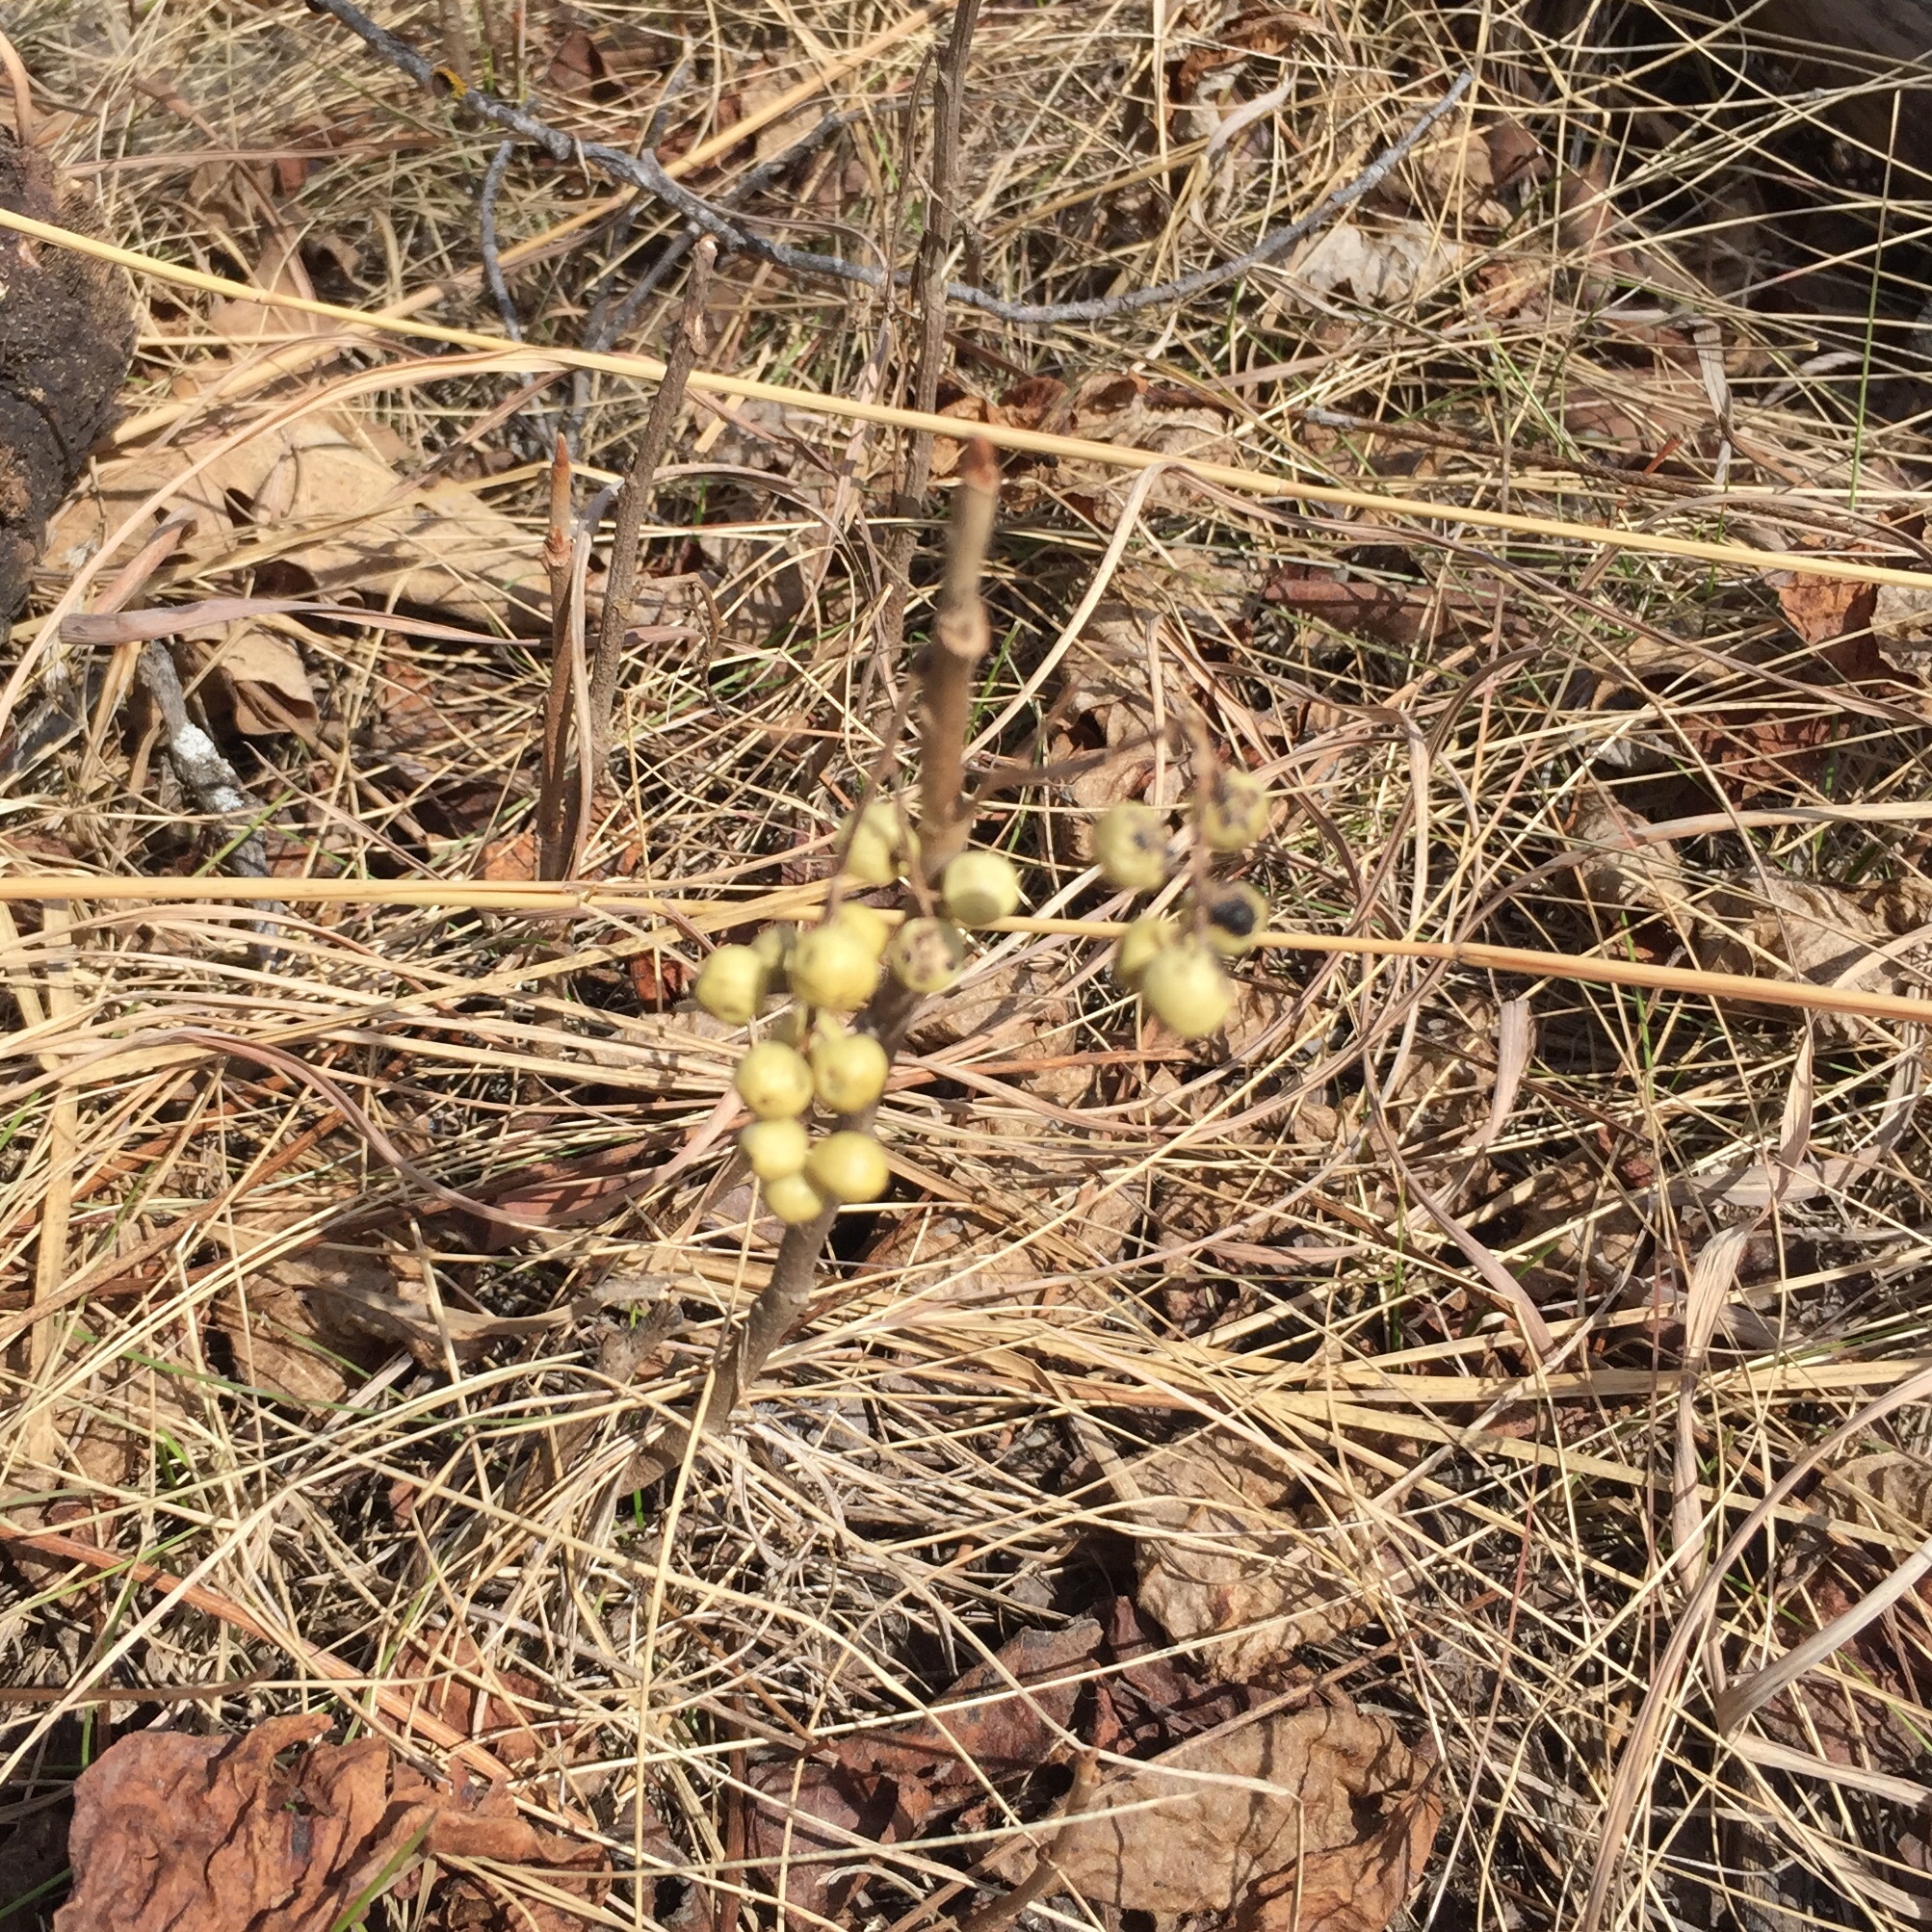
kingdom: Plantae
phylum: Tracheophyta
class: Magnoliopsida
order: Sapindales
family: Anacardiaceae
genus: Toxicodendron
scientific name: Toxicodendron rydbergii
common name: Rydberg's poison-ivy
